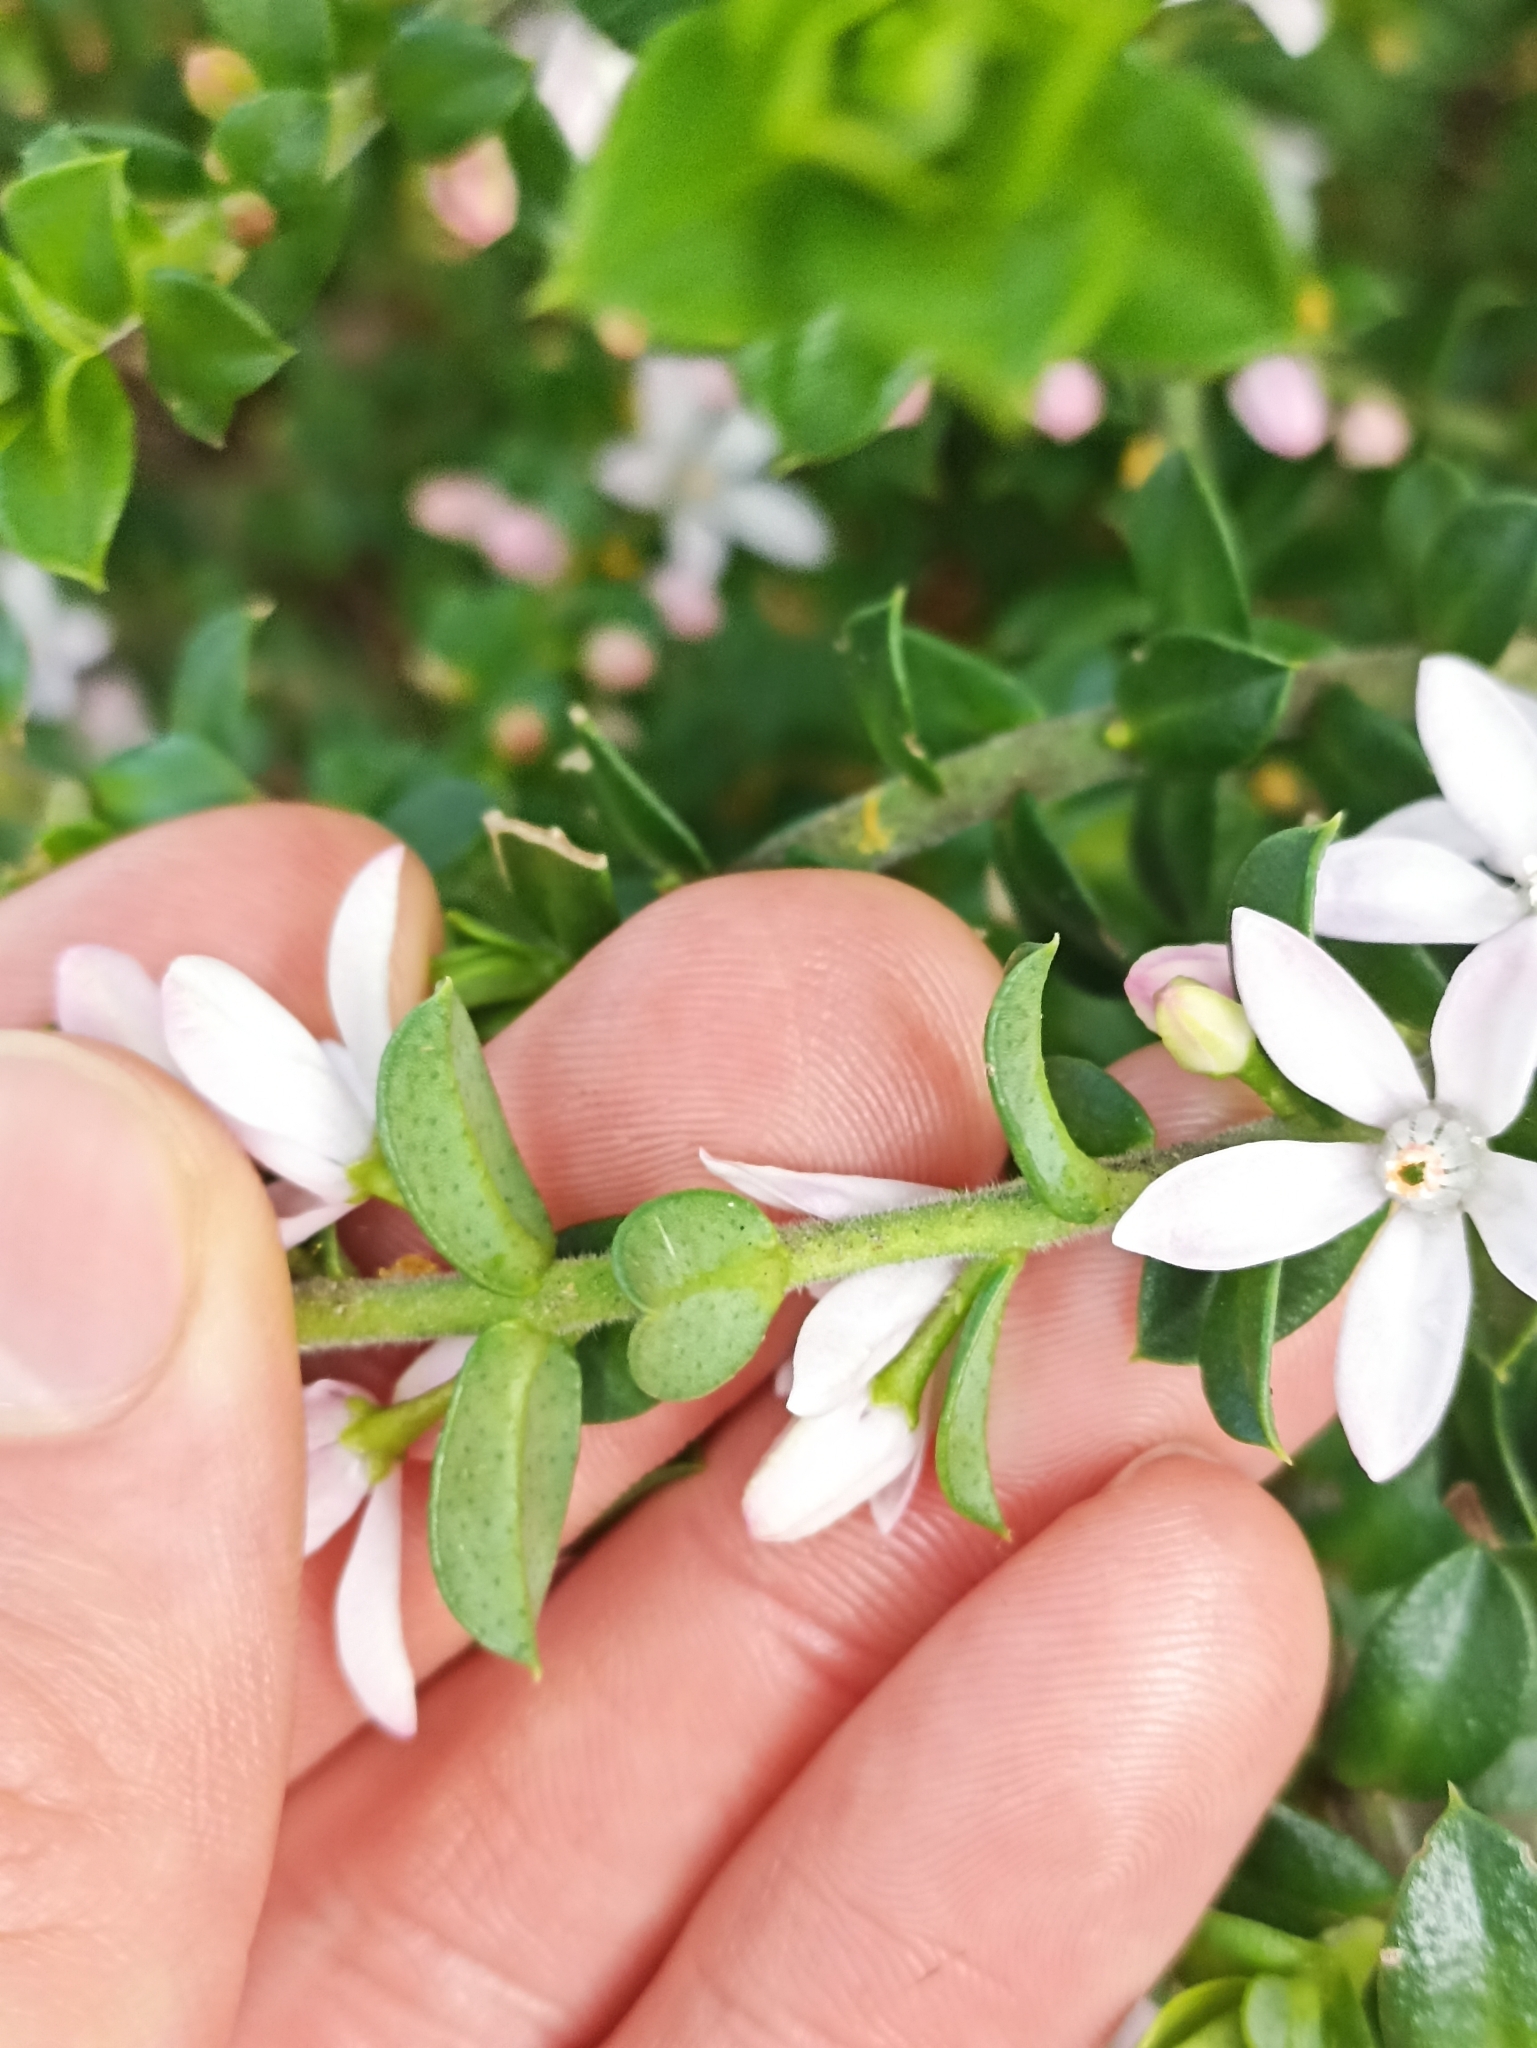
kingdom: Plantae
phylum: Tracheophyta
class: Magnoliopsida
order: Sapindales
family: Rutaceae
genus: Philotheca
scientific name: Philotheca buxifolia
